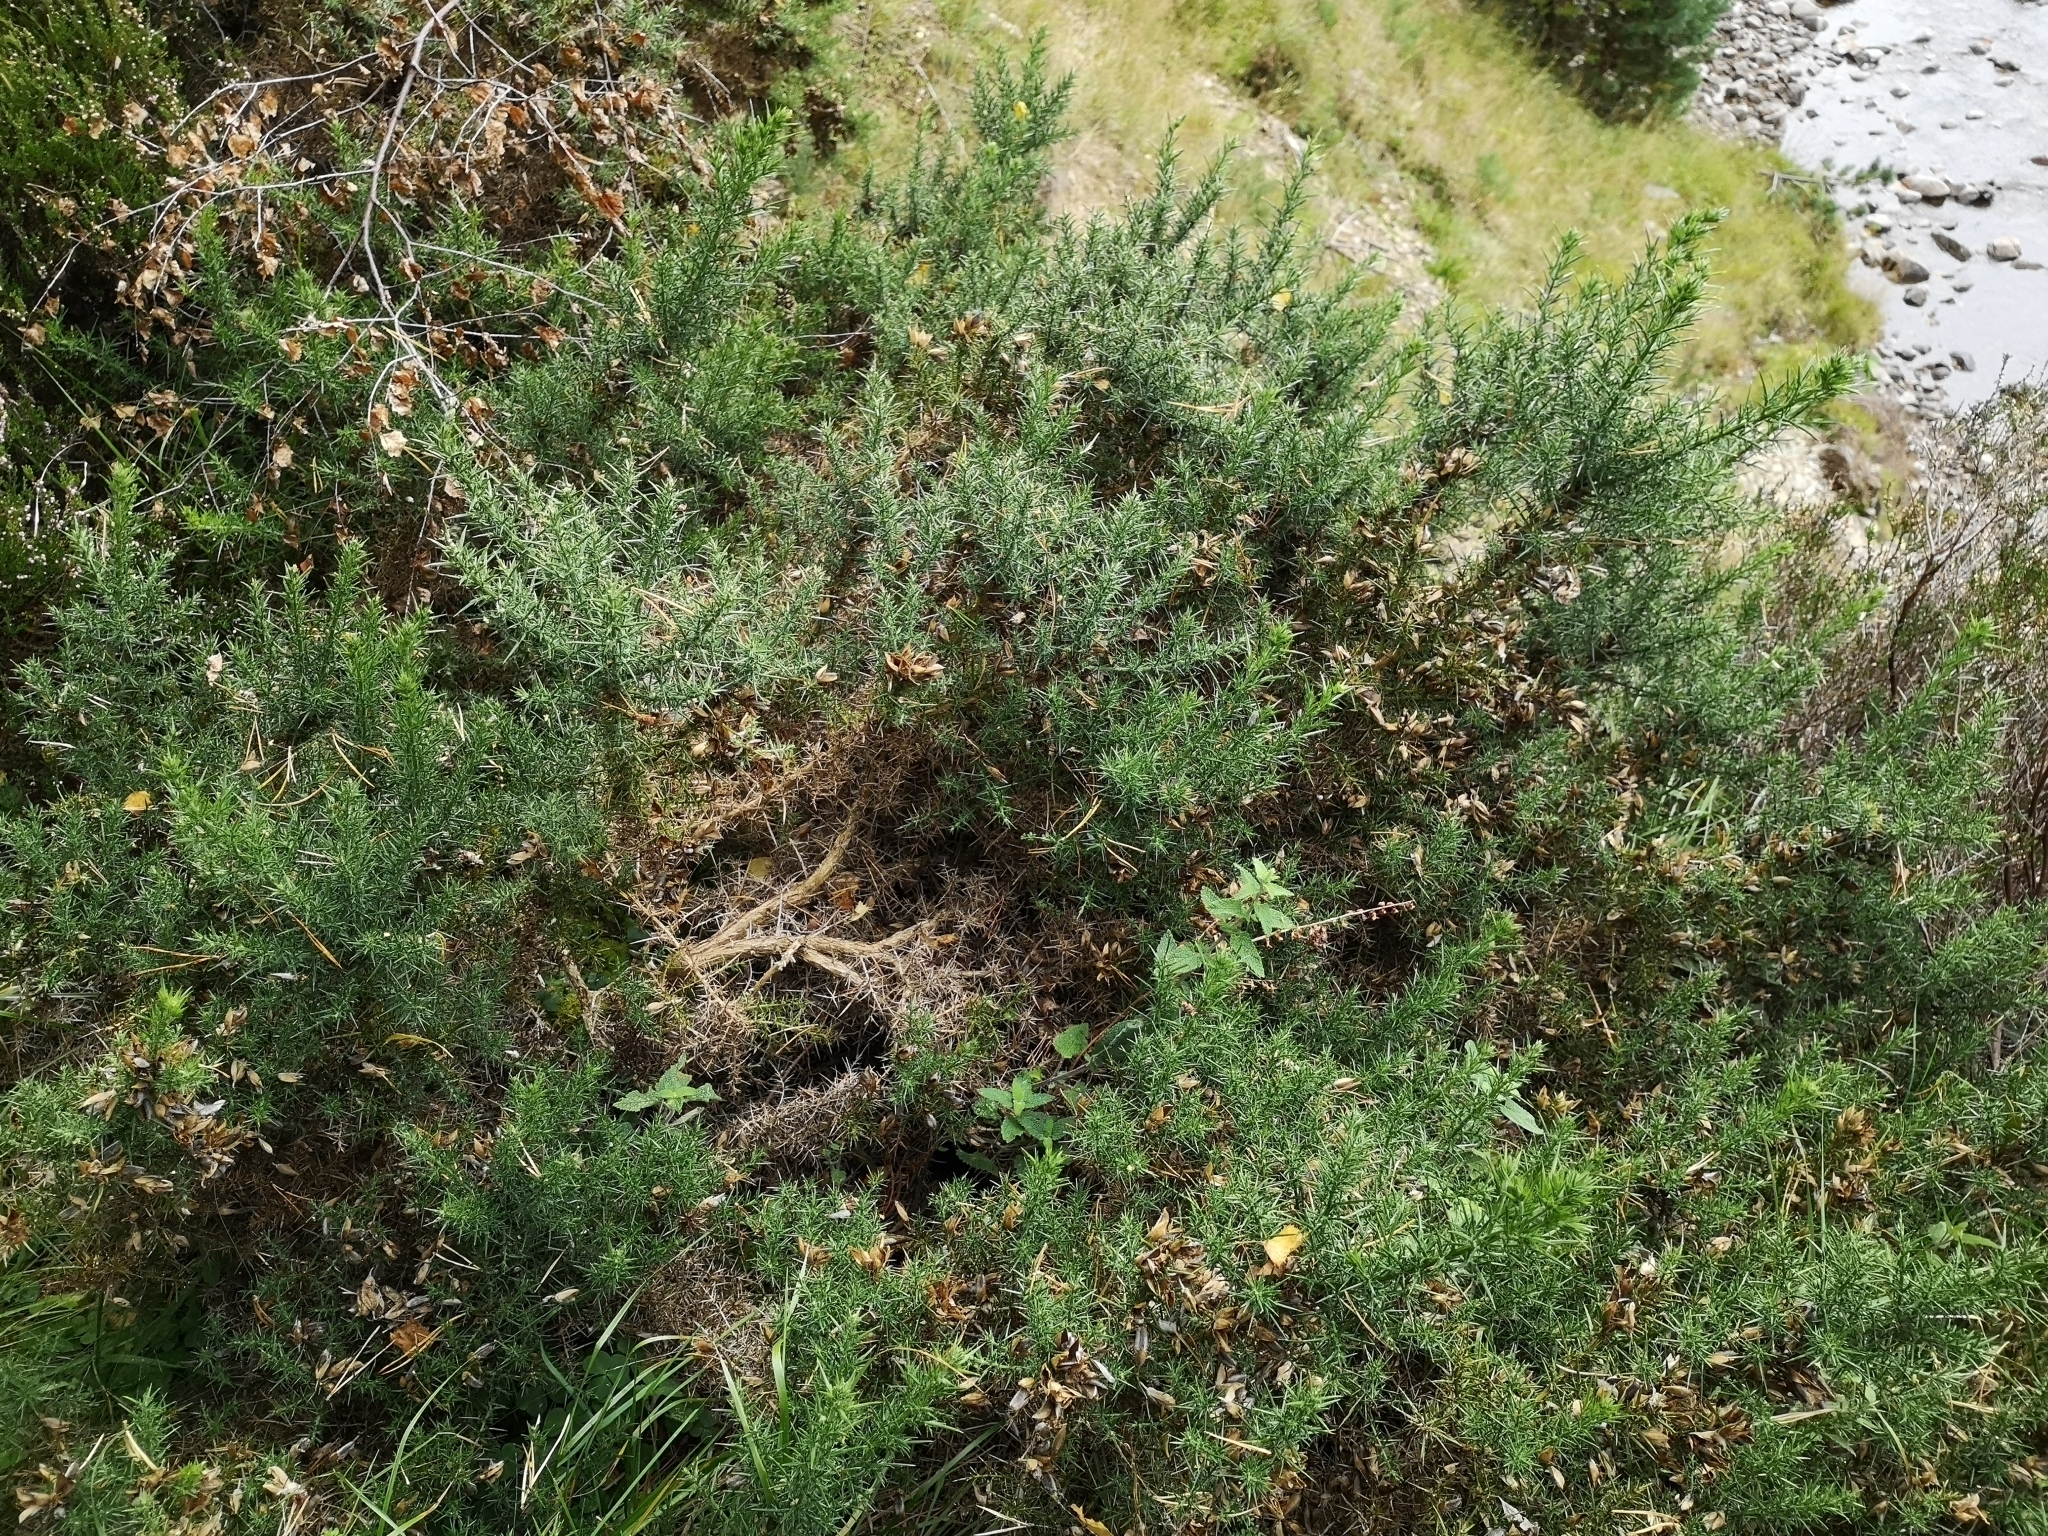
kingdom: Plantae
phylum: Tracheophyta
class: Magnoliopsida
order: Fabales
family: Fabaceae
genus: Ulex
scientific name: Ulex europaeus
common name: Common gorse
